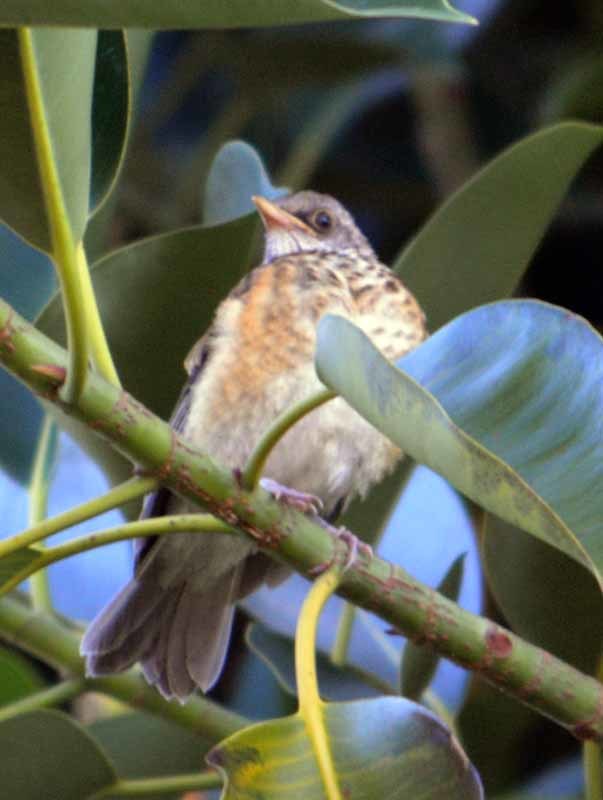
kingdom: Animalia
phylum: Chordata
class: Aves
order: Passeriformes
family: Turdidae
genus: Turdus
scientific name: Turdus rufopalliatus
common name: Rufous-backed robin
